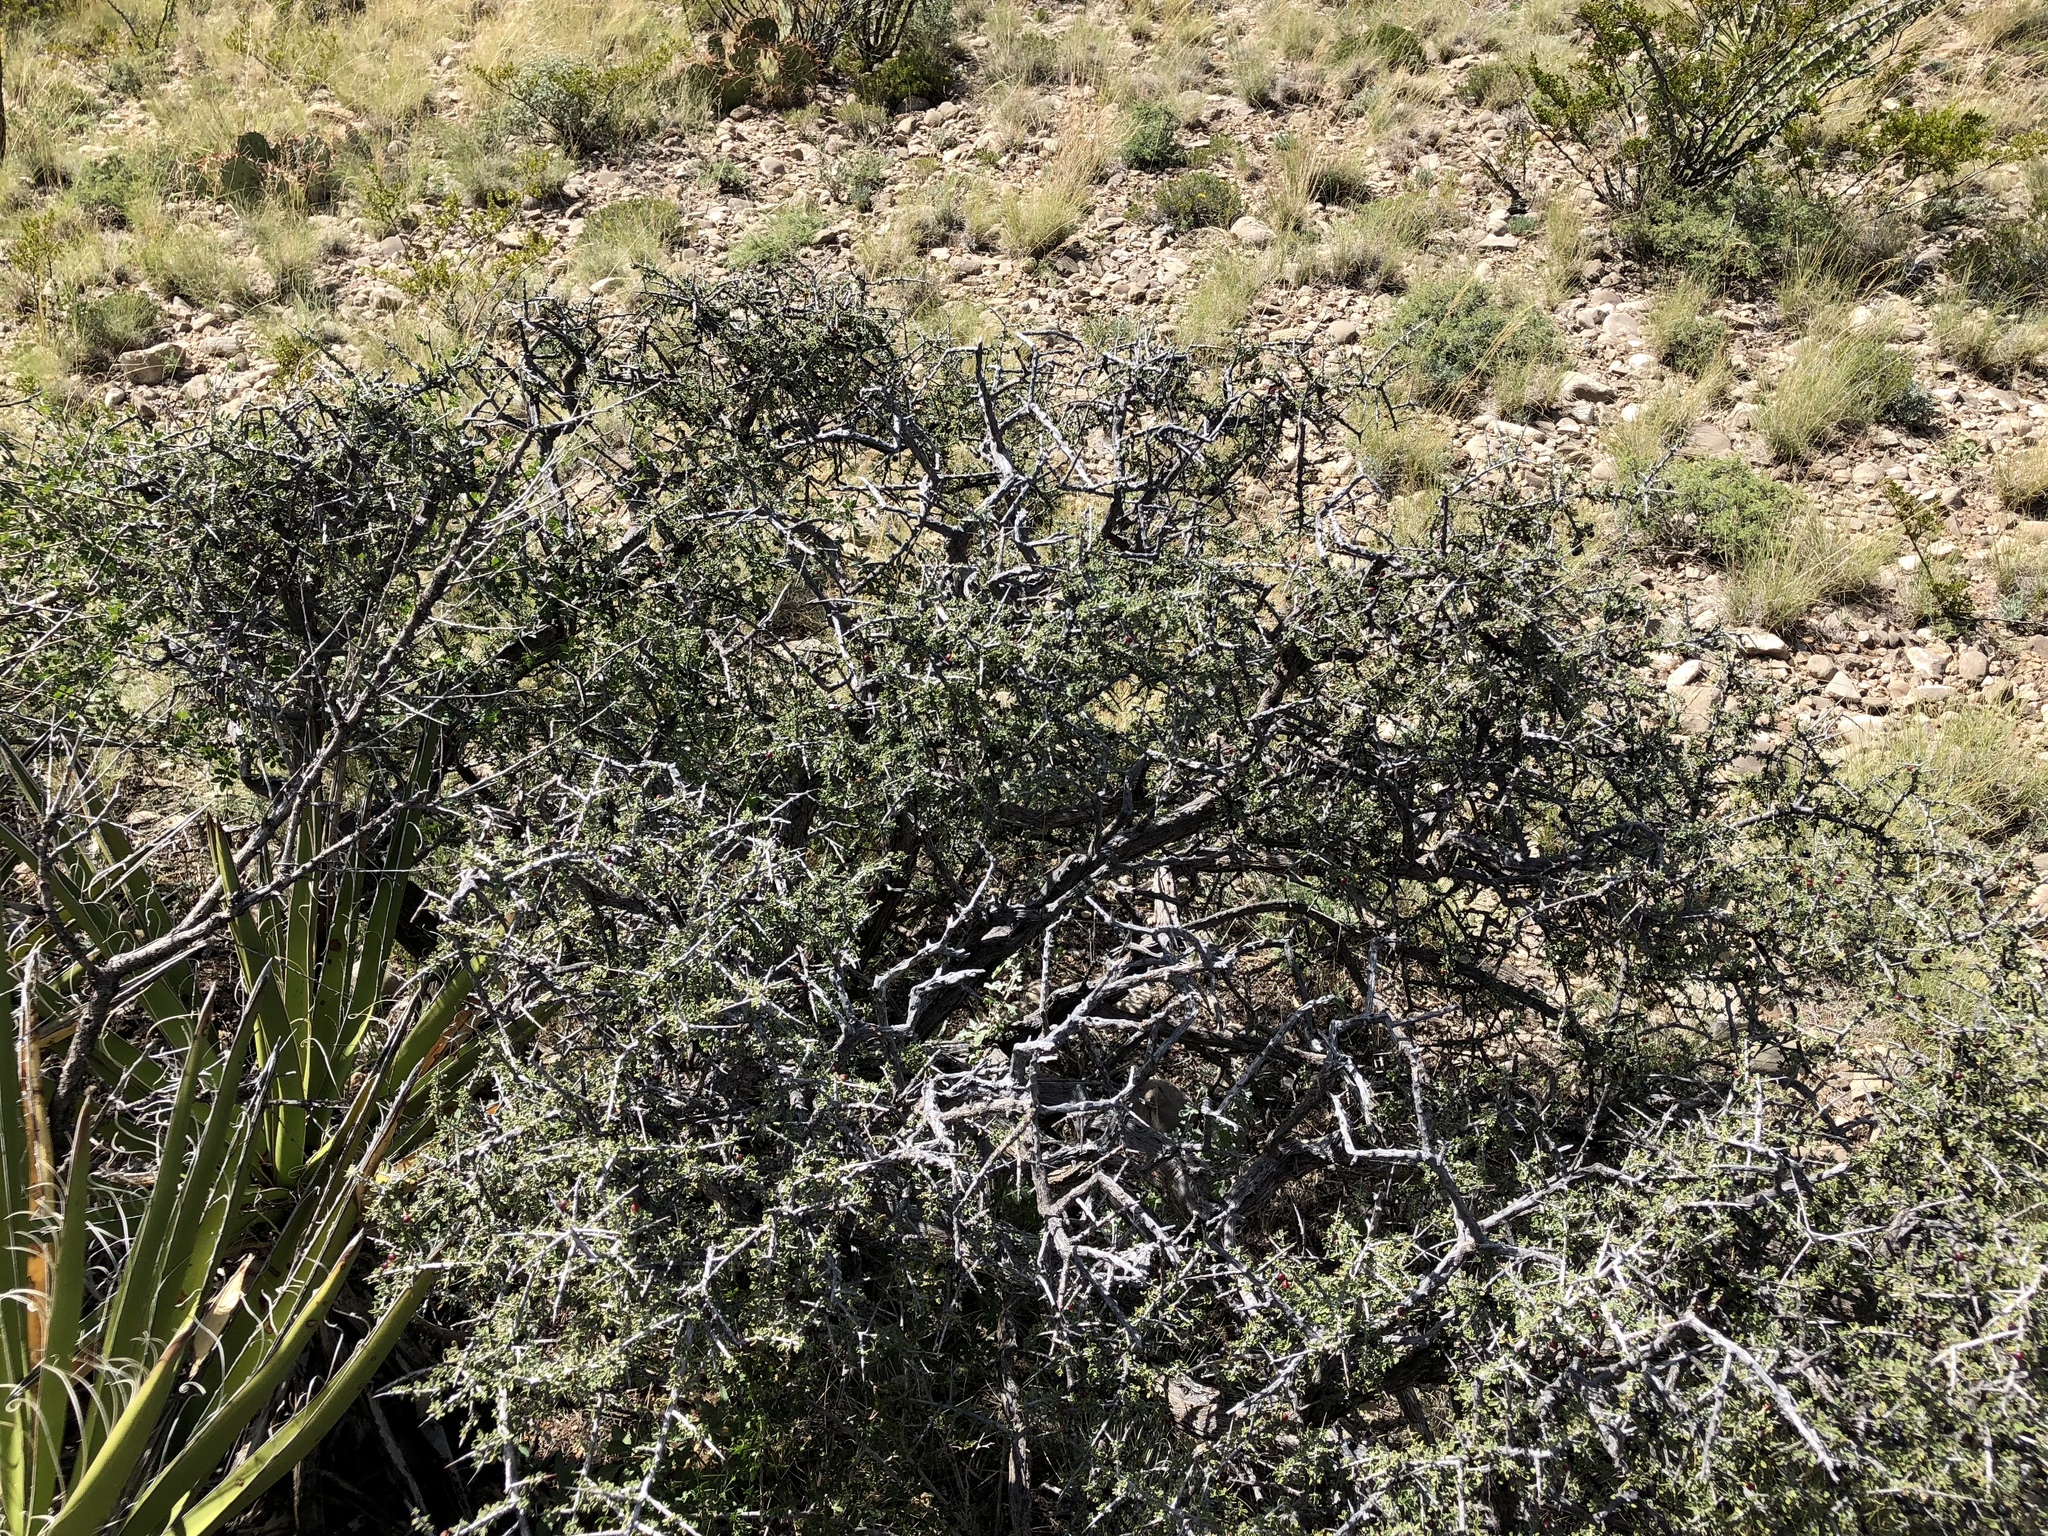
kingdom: Plantae
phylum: Tracheophyta
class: Magnoliopsida
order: Rosales
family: Rhamnaceae
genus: Condalia
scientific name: Condalia warnockii
